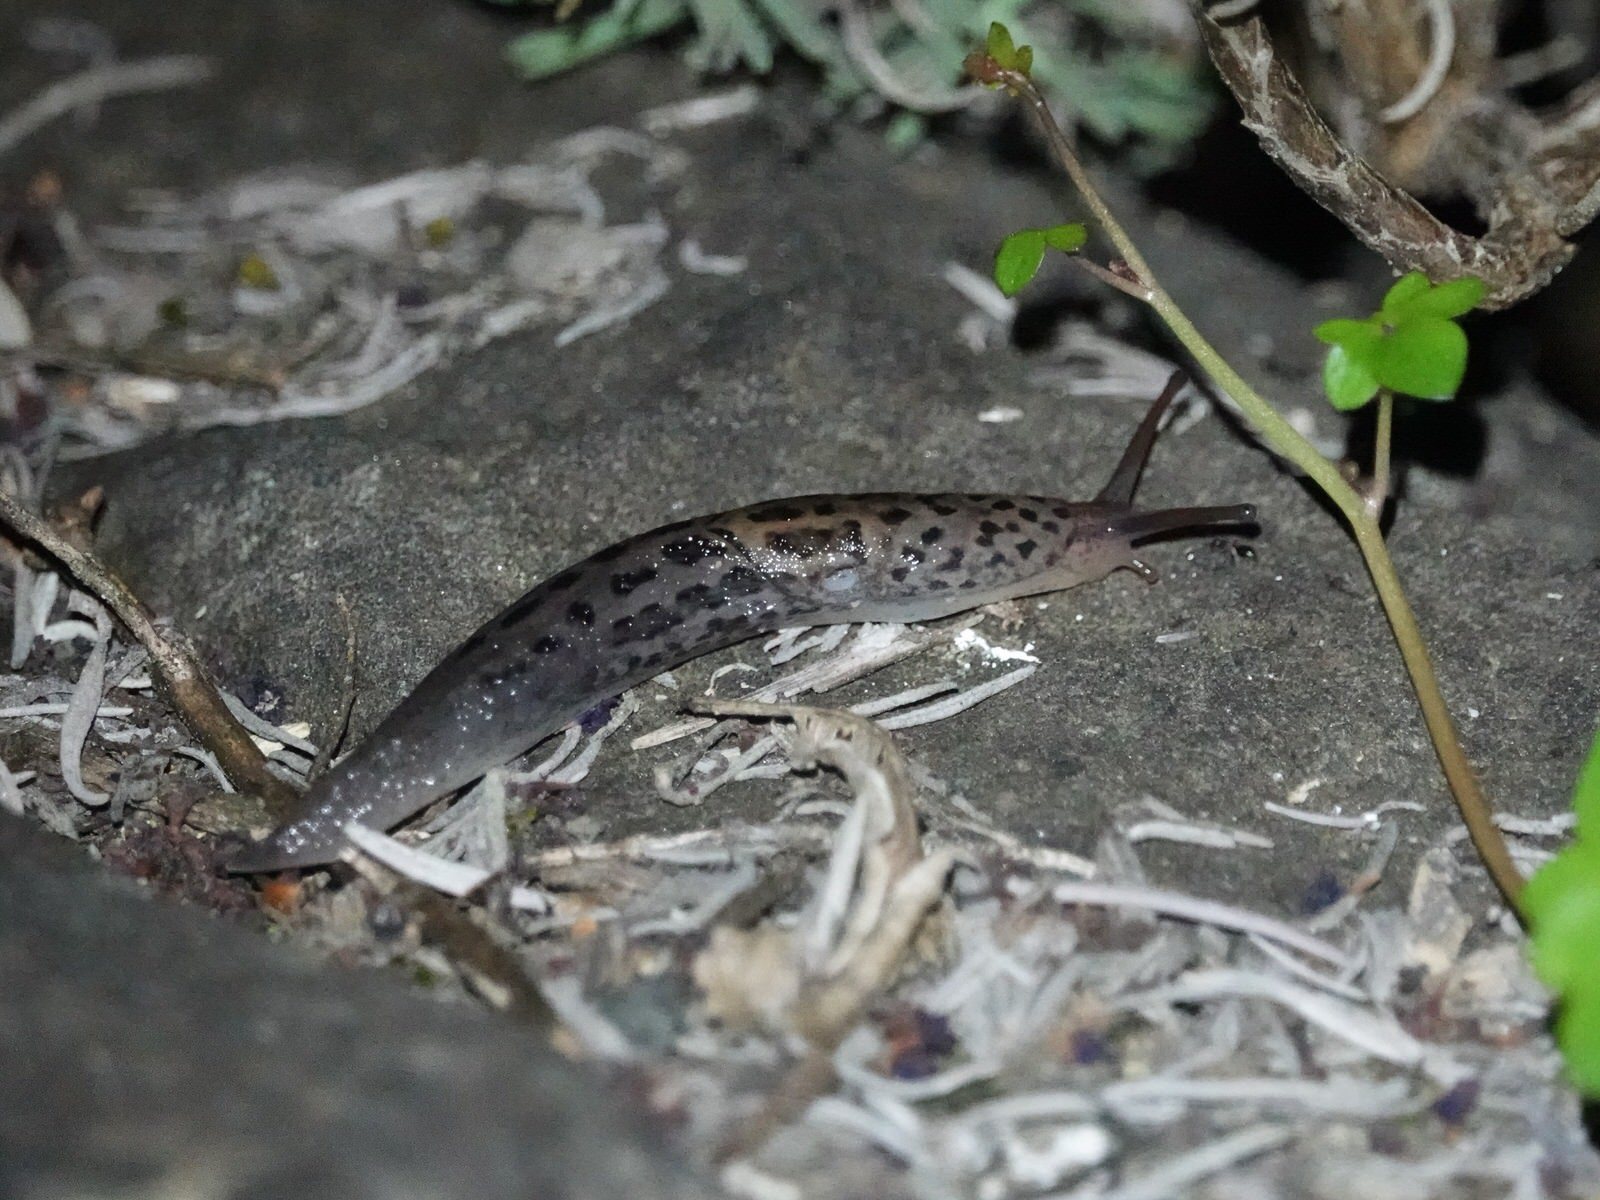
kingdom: Animalia
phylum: Mollusca
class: Gastropoda
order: Stylommatophora
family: Limacidae
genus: Limax
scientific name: Limax maximus
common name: Great grey slug
